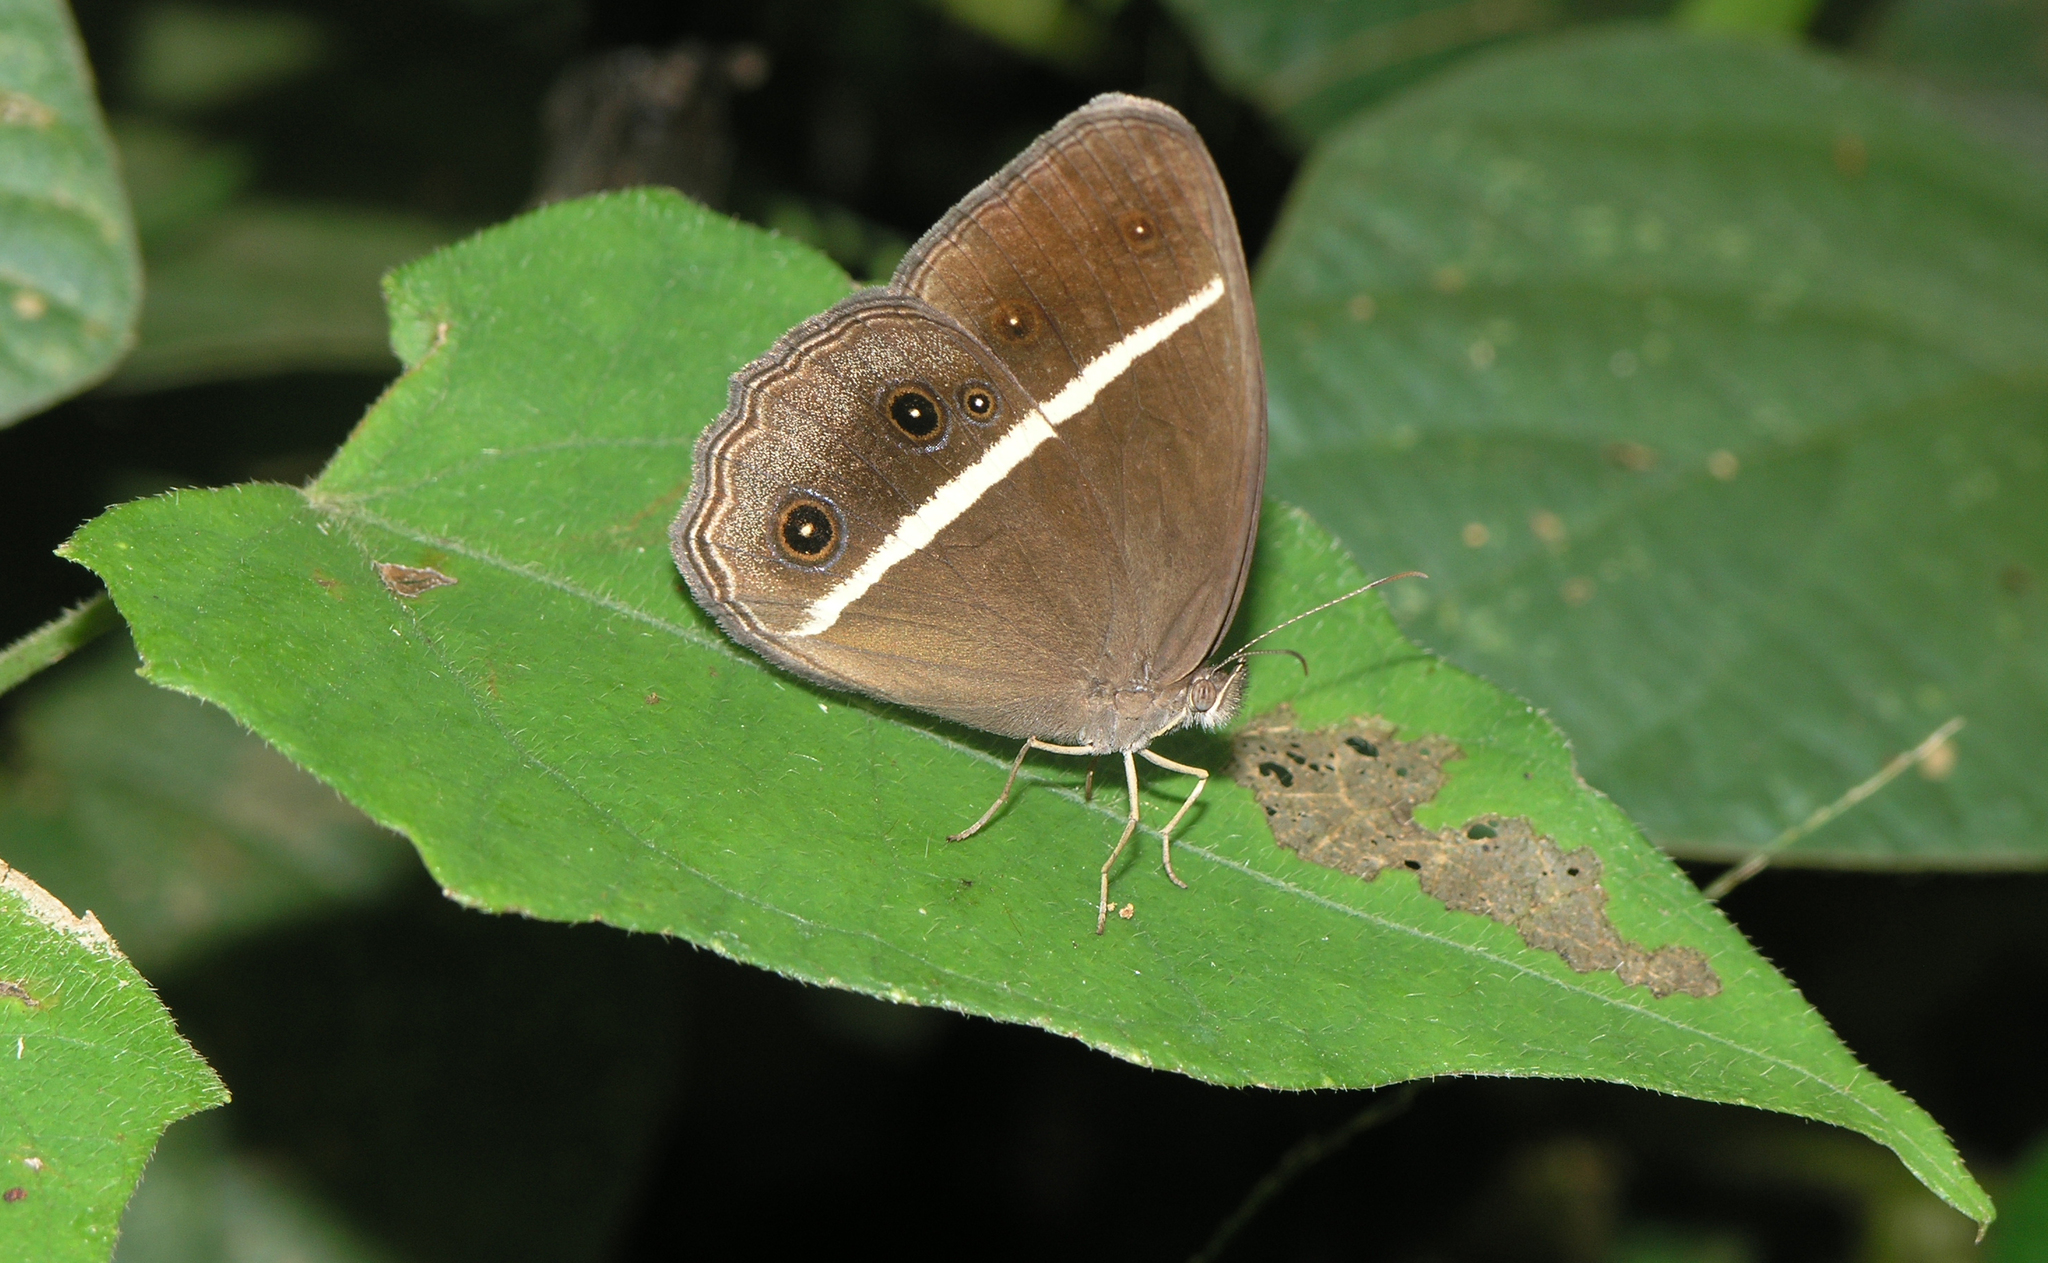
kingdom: Animalia
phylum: Arthropoda
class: Insecta
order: Lepidoptera
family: Nymphalidae
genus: Orsotriaena
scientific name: Orsotriaena medus
